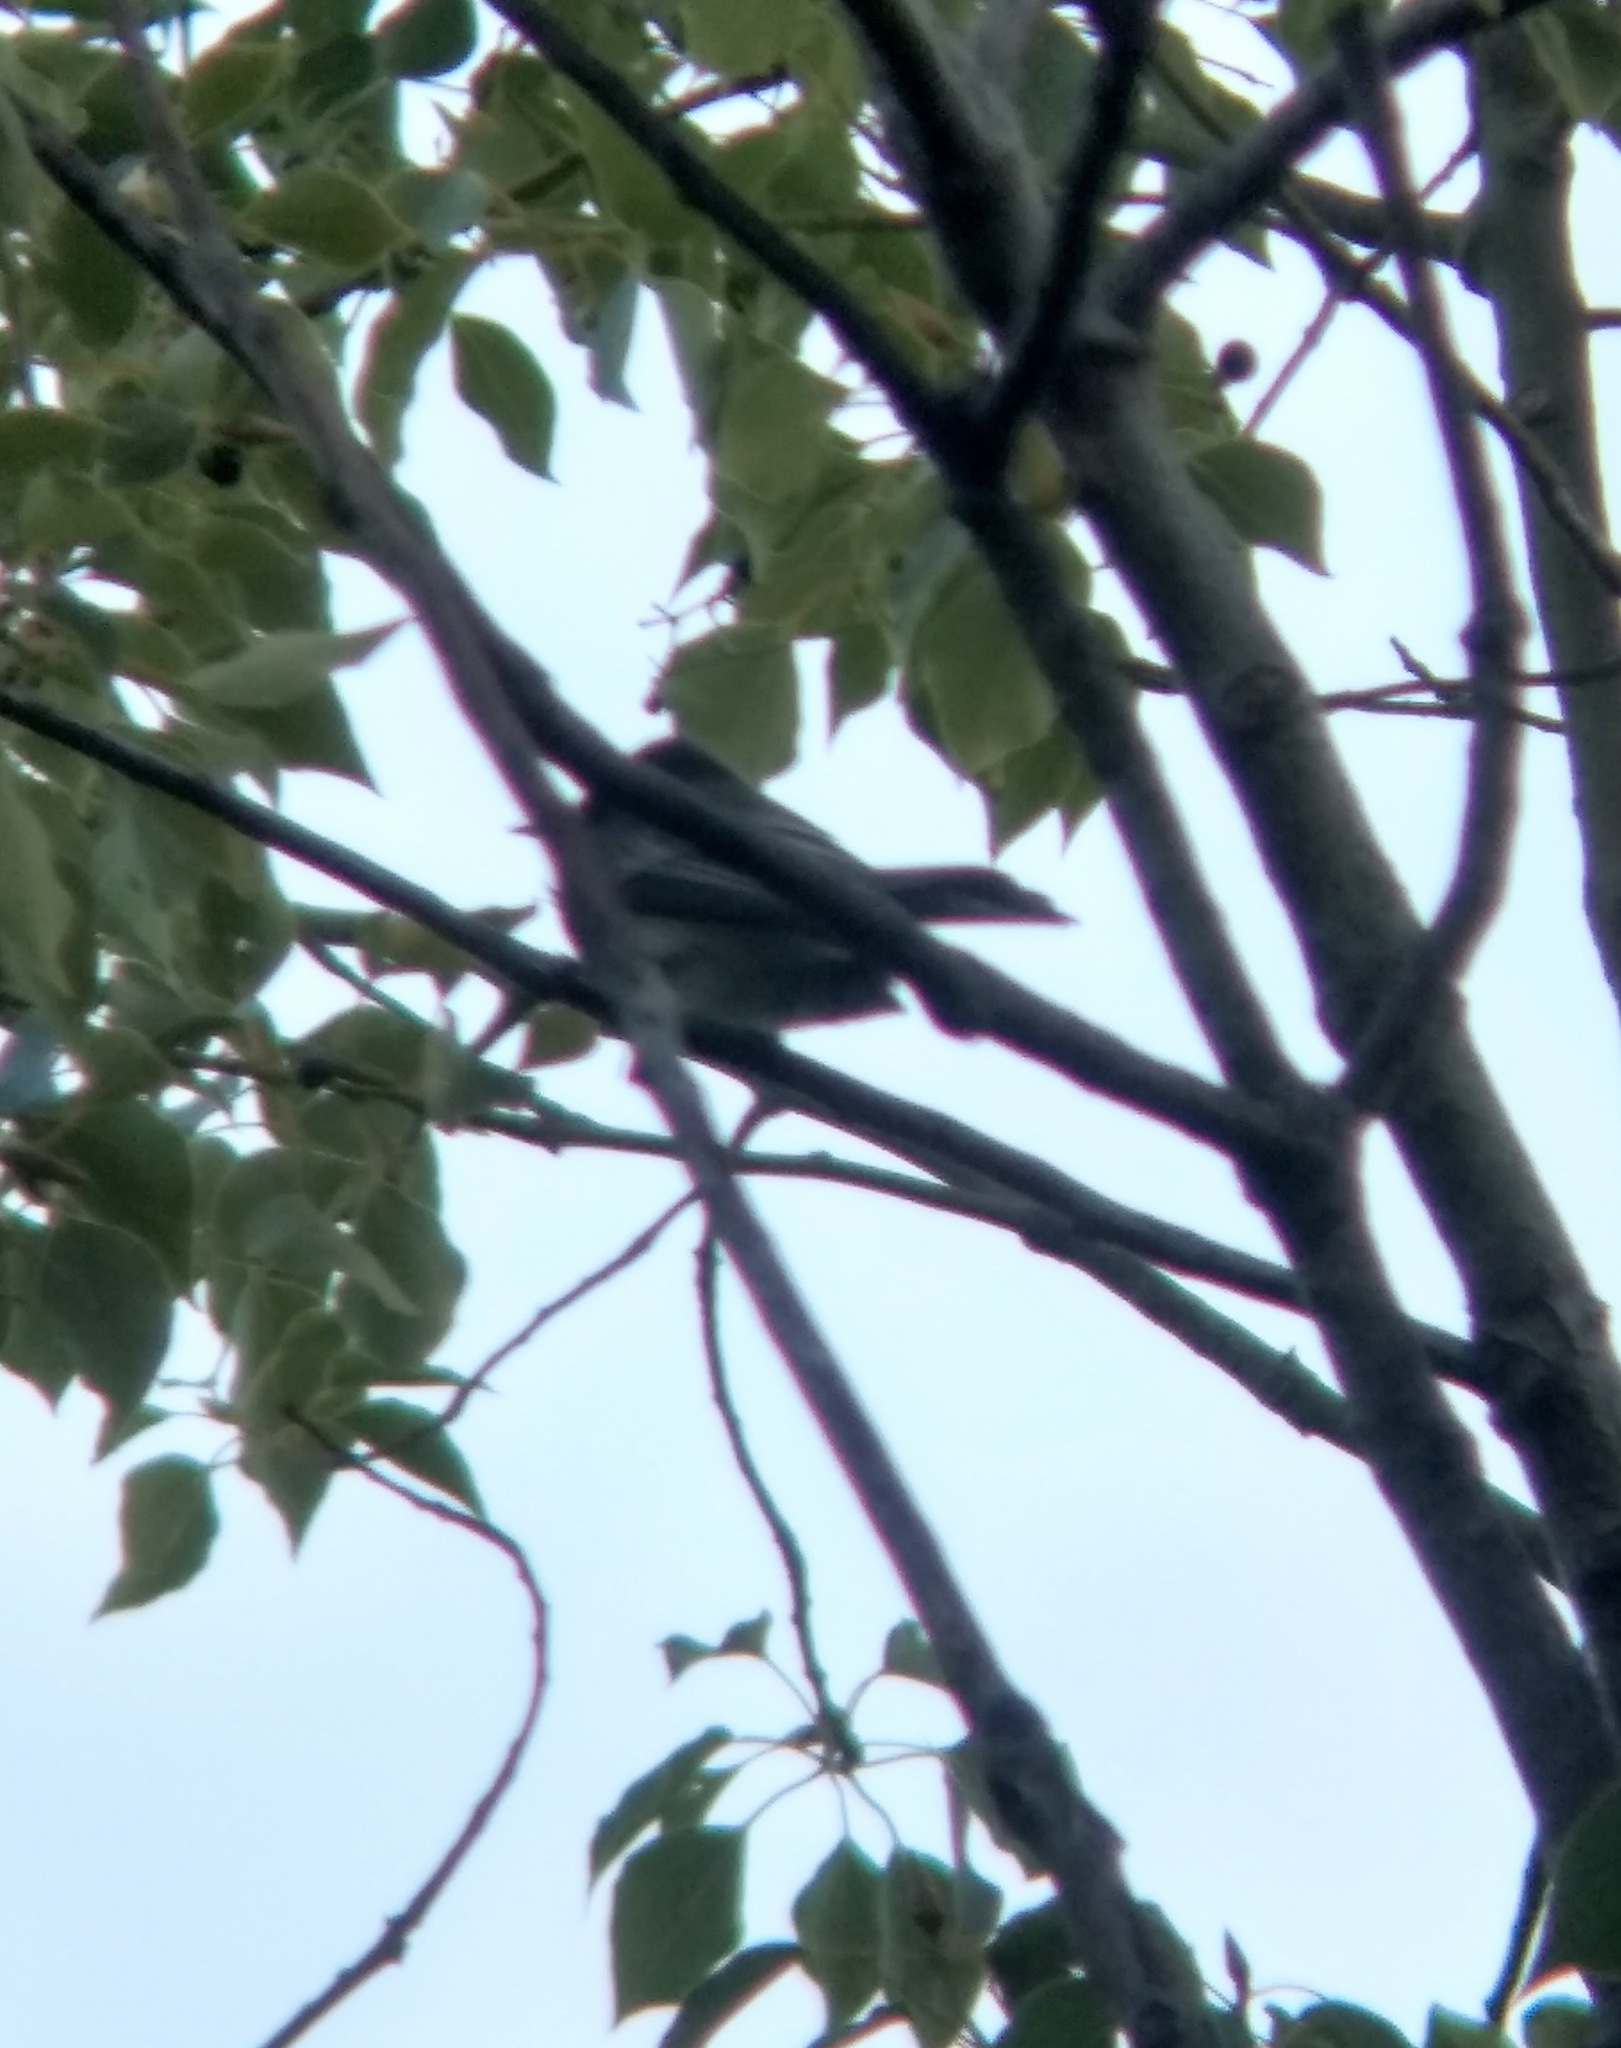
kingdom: Animalia
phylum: Chordata
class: Aves
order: Passeriformes
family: Tyrannidae
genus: Sayornis
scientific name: Sayornis nigricans
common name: Black phoebe
